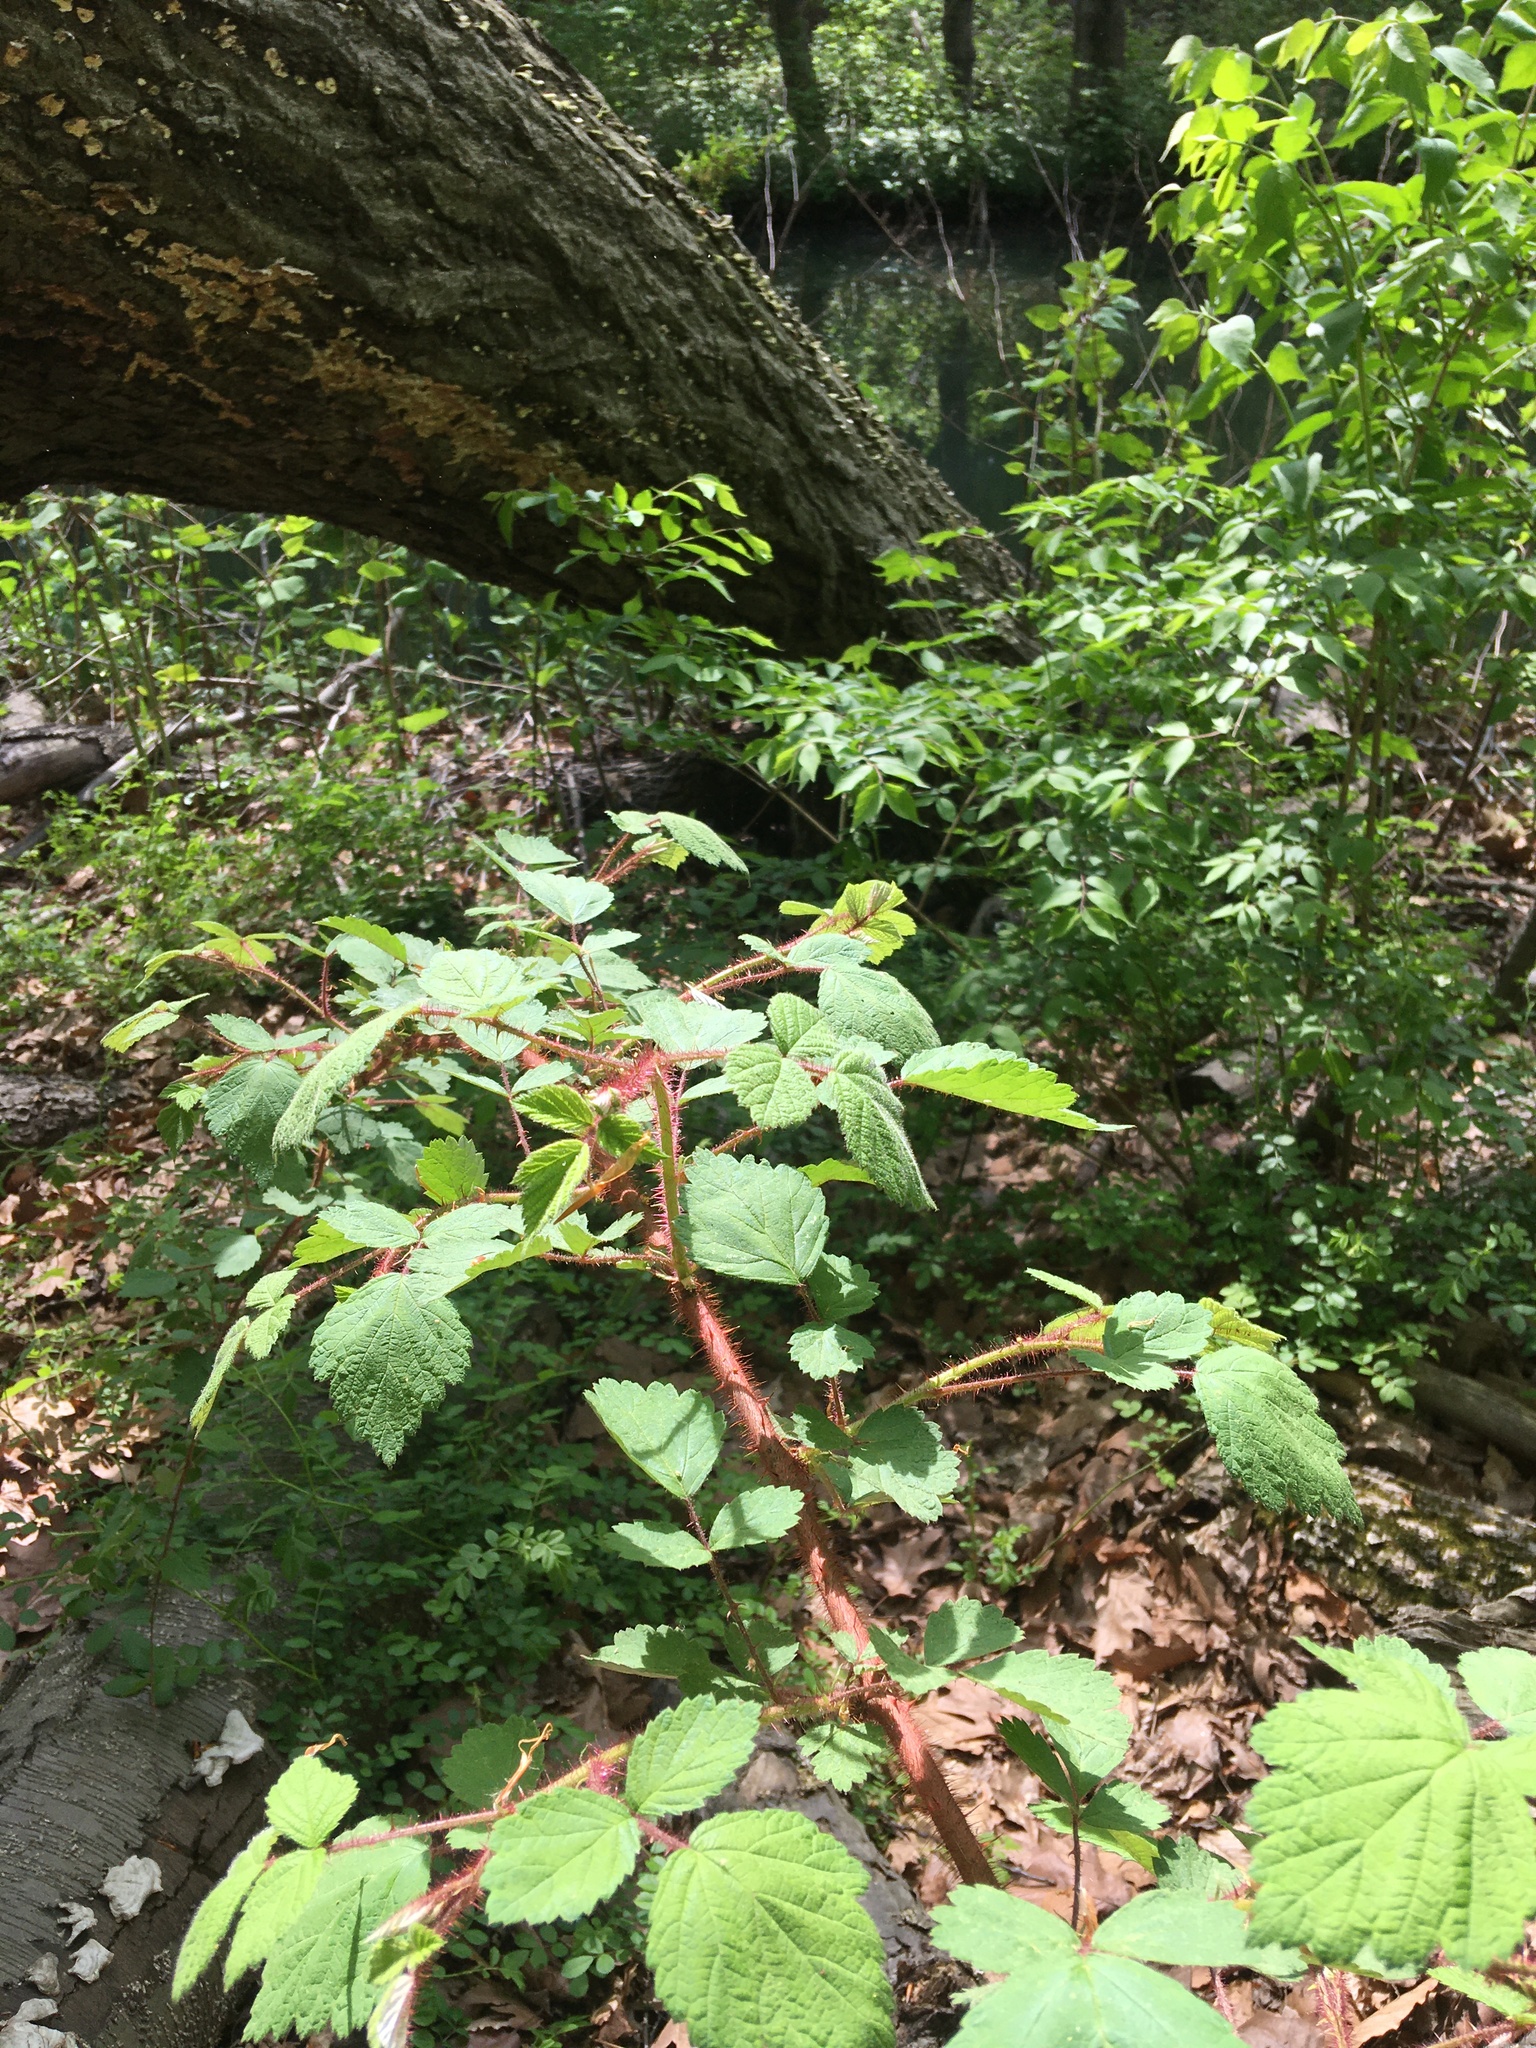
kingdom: Plantae
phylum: Tracheophyta
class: Magnoliopsida
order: Rosales
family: Rosaceae
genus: Rubus
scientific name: Rubus phoenicolasius
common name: Japanese wineberry
